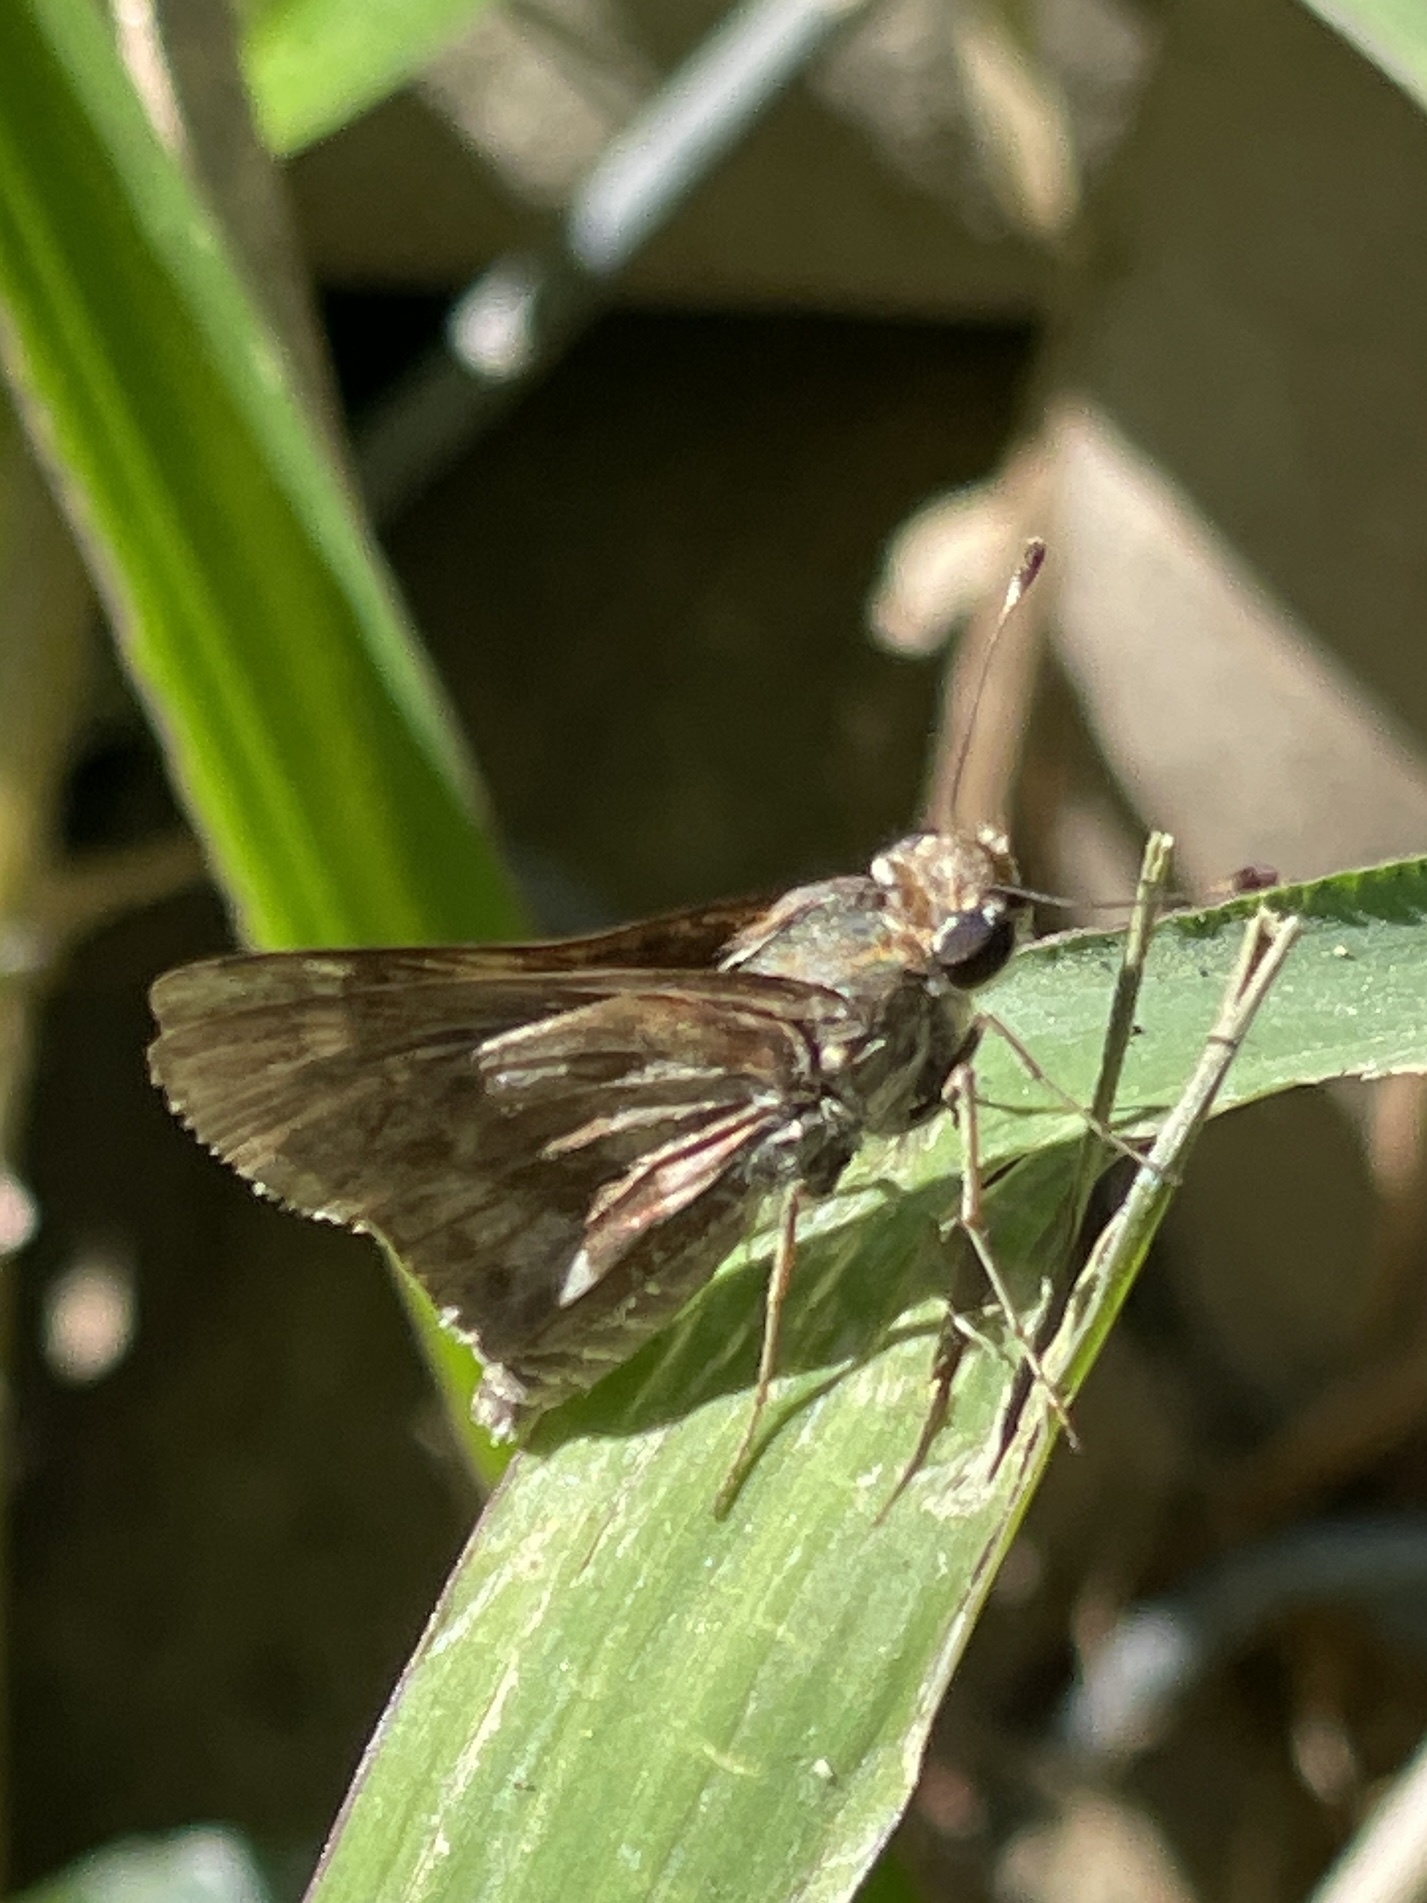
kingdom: Animalia
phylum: Arthropoda
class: Insecta
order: Lepidoptera
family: Hesperiidae
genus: Pompeius
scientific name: Pompeius pompeius
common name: Pompeius skipper
